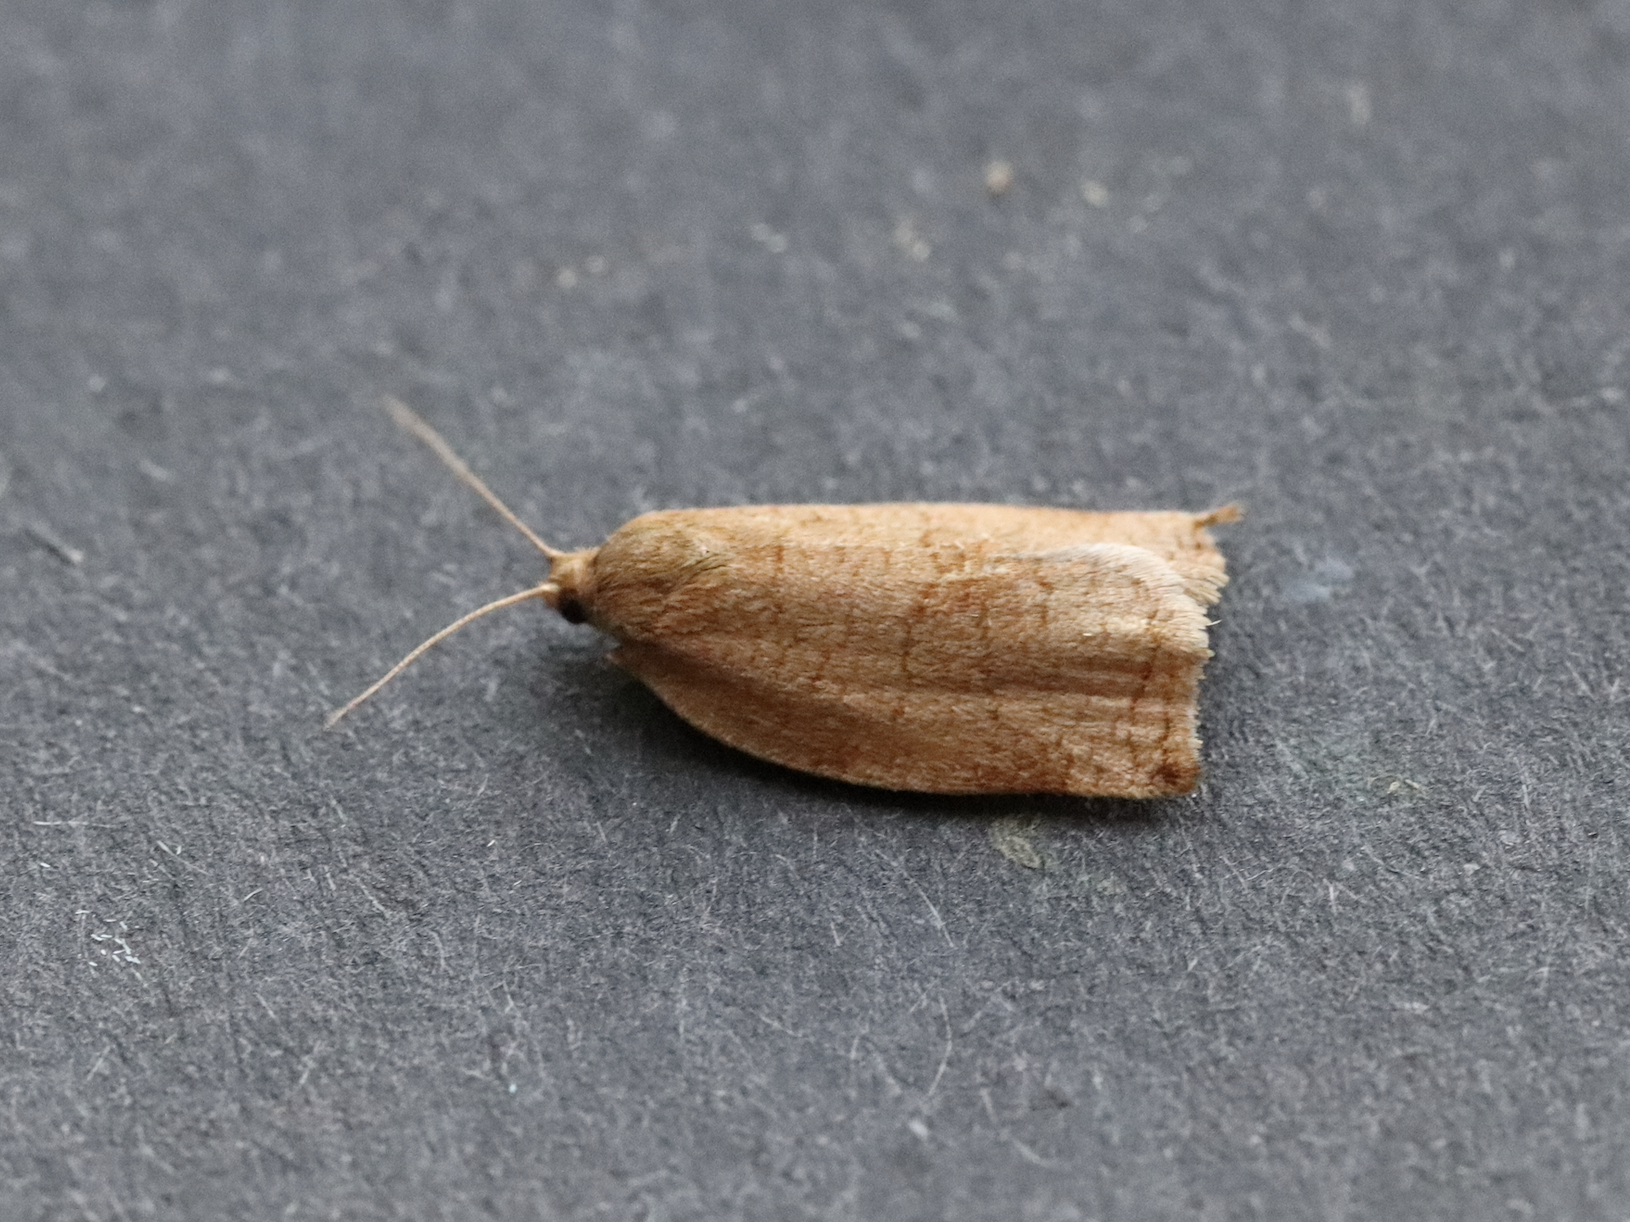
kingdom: Animalia
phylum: Arthropoda
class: Insecta
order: Lepidoptera
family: Tortricidae
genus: Archips
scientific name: Archips rosana
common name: Rose tortrix
